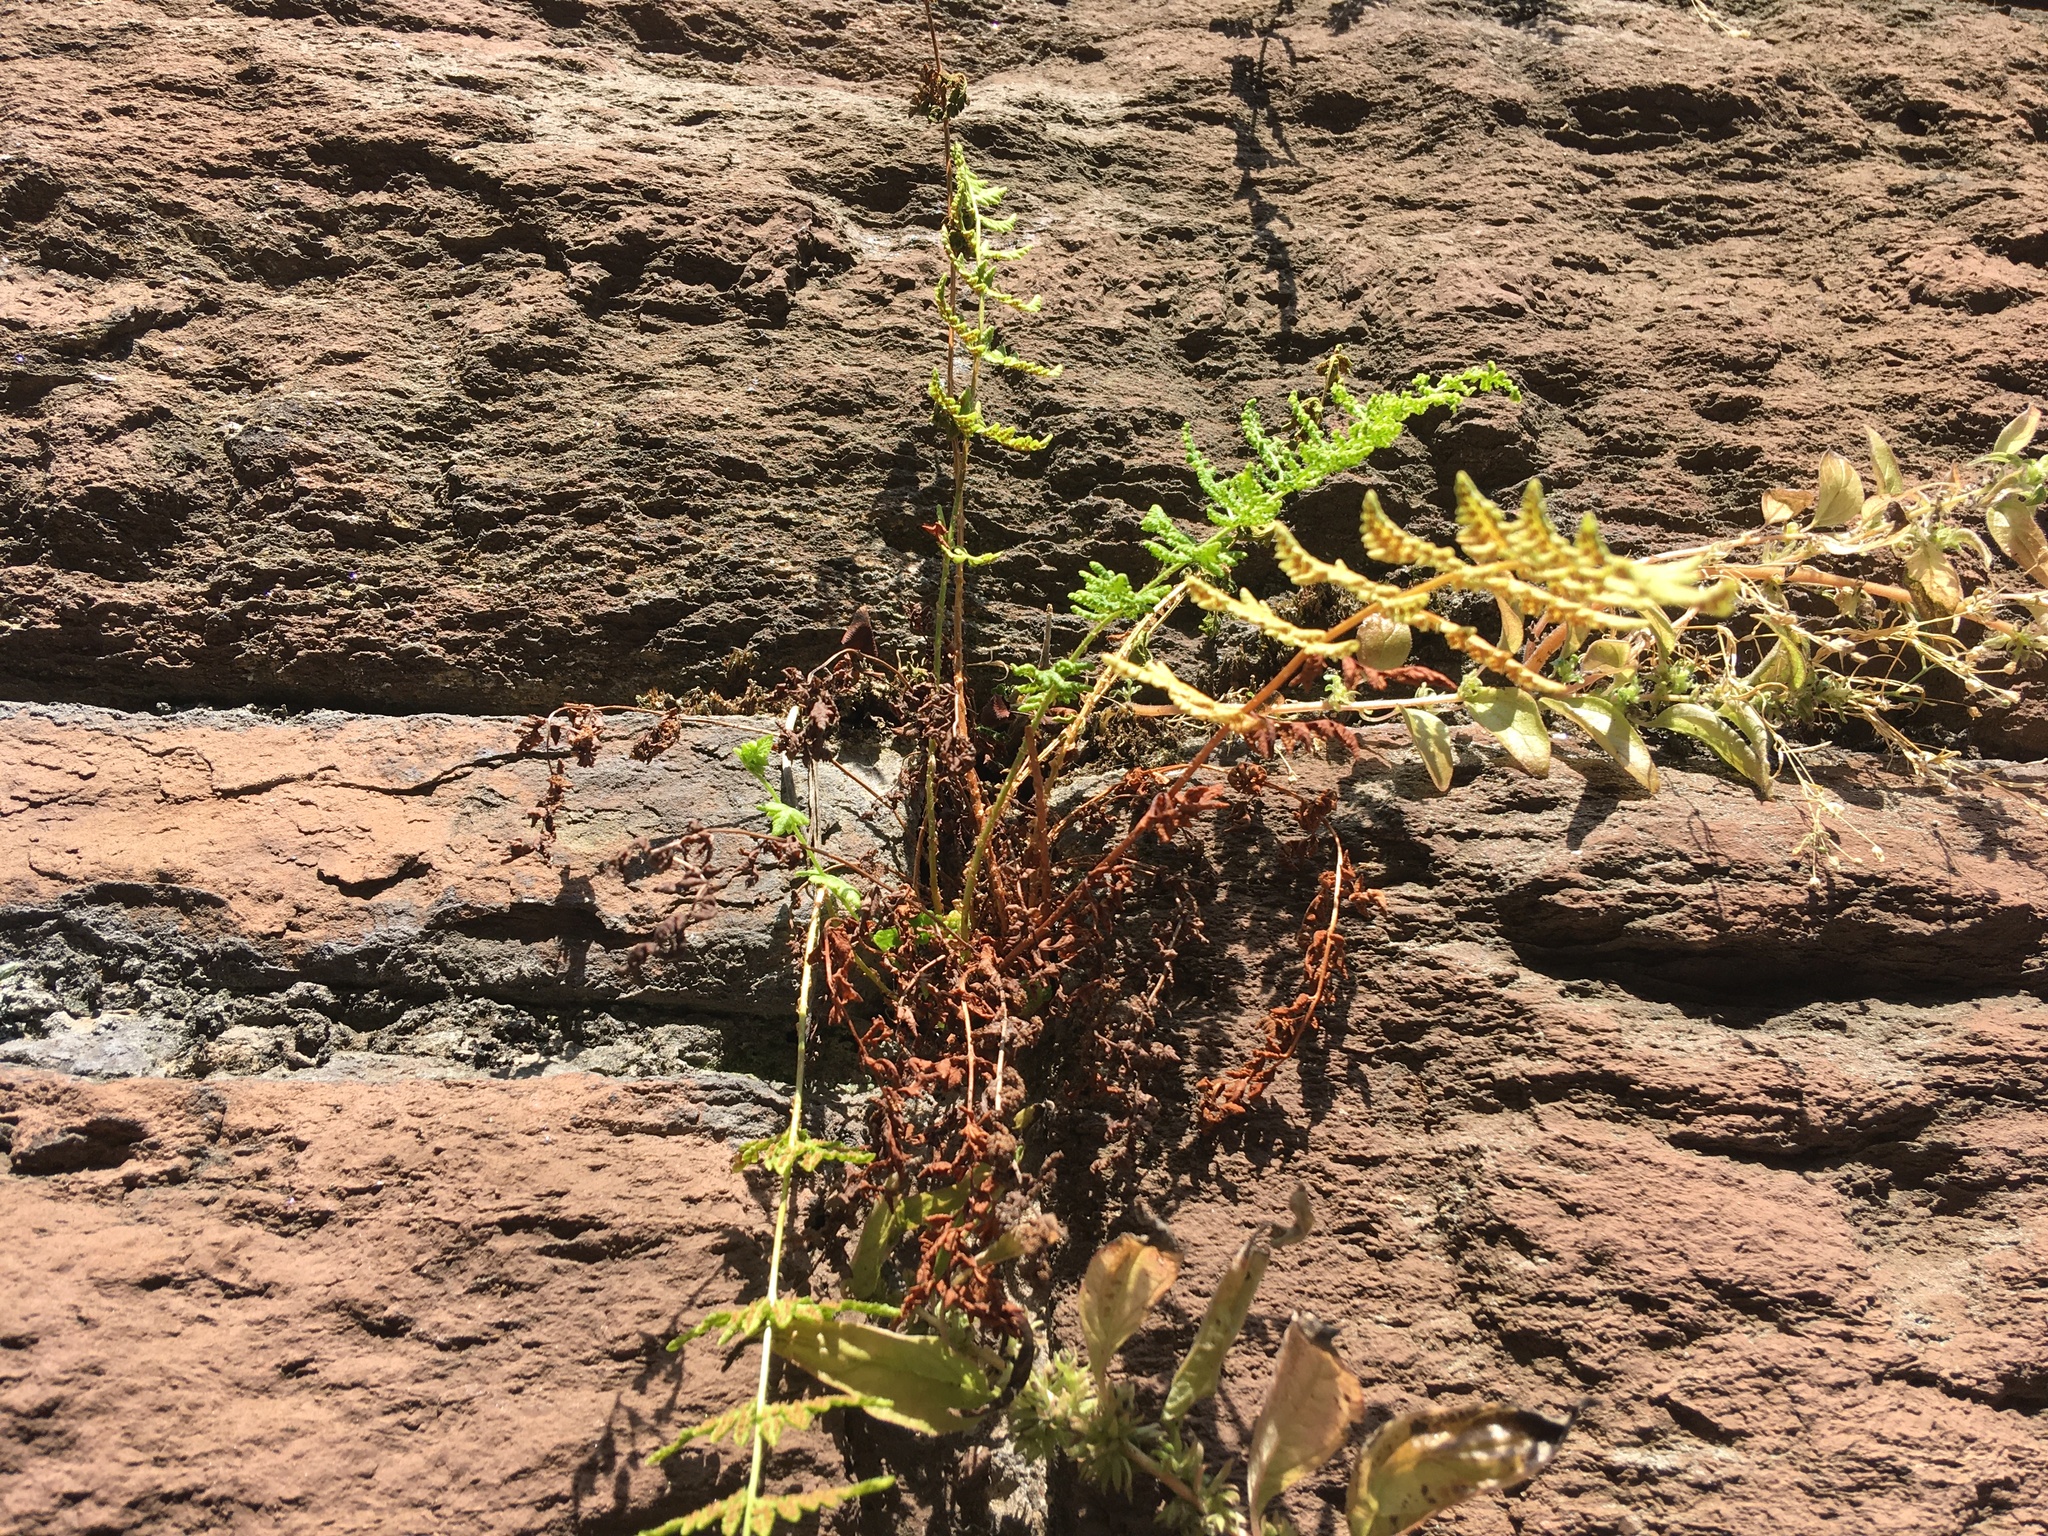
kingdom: Plantae
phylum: Tracheophyta
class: Polypodiopsida
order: Polypodiales
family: Woodsiaceae
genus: Physematium
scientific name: Physematium obtusum
